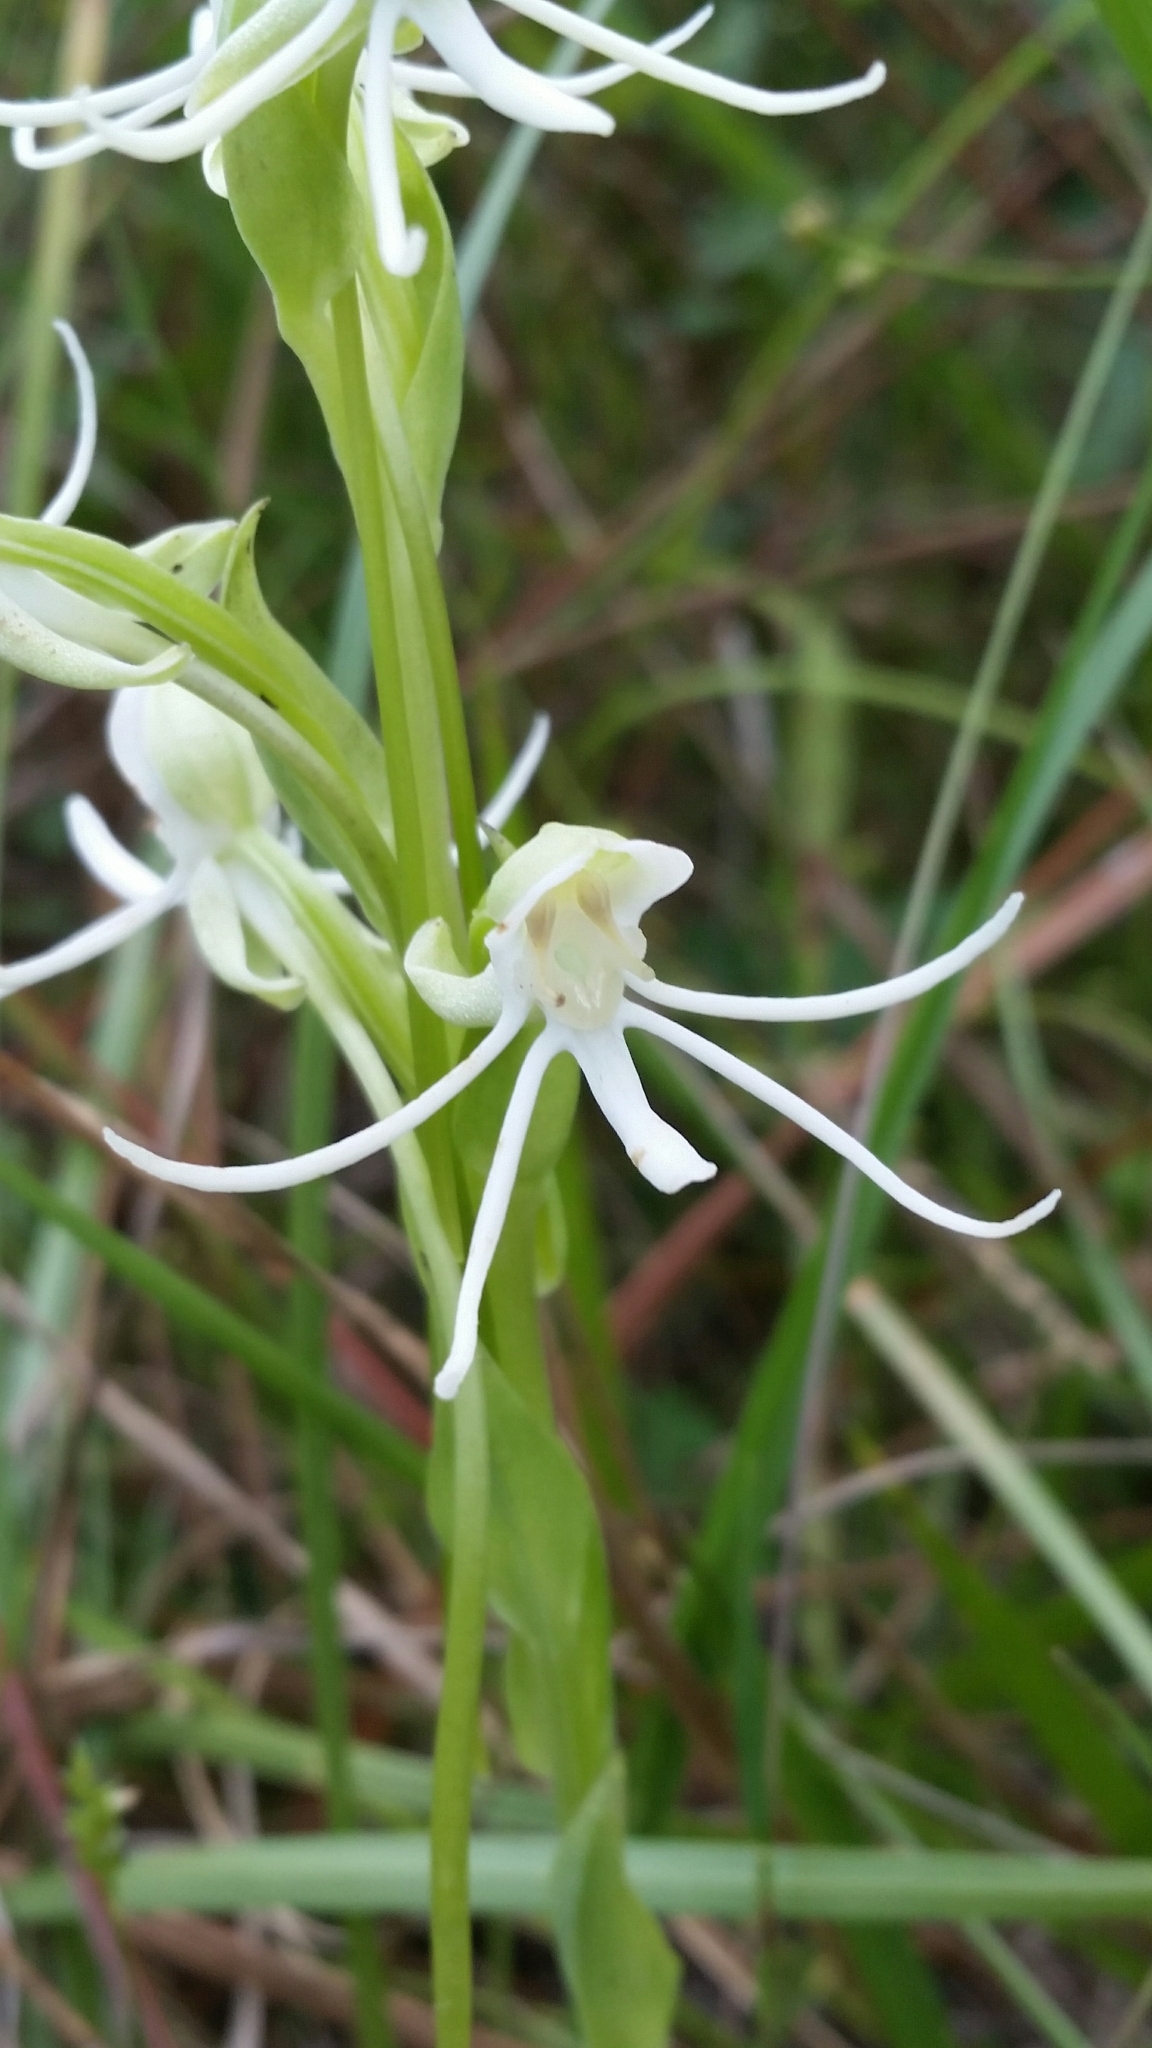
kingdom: Plantae
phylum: Tracheophyta
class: Liliopsida
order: Asparagales
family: Orchidaceae
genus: Habenaria
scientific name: Habenaria quinqueseta
